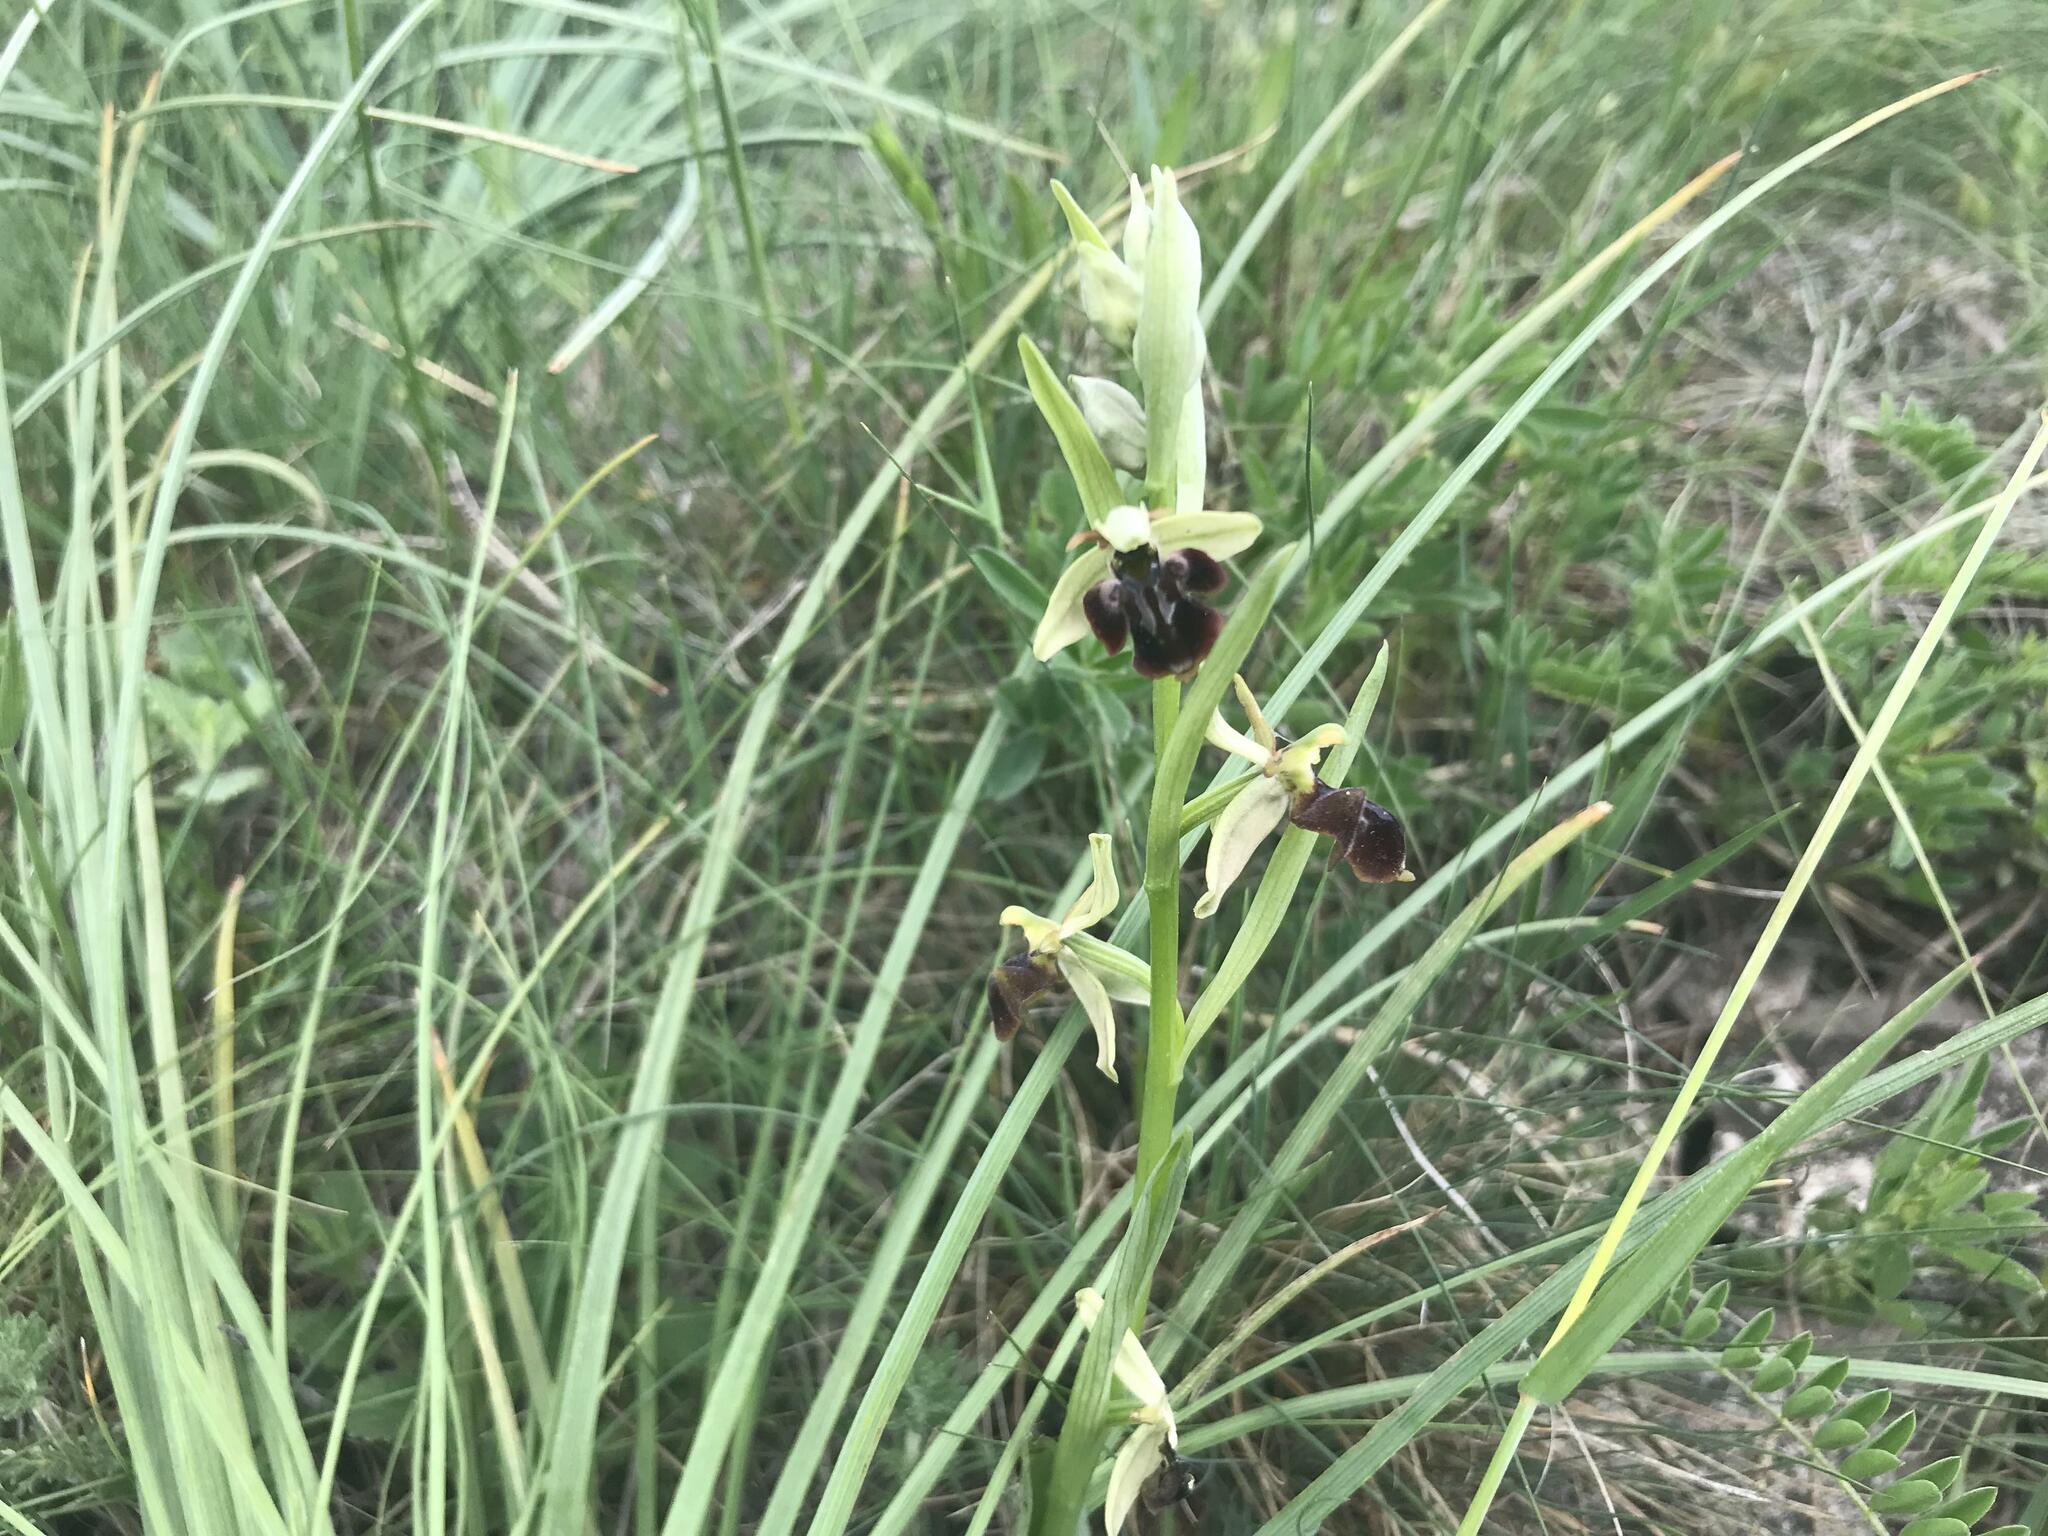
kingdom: Plantae
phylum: Tracheophyta
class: Liliopsida
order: Asparagales
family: Orchidaceae
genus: Ophrys
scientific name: Ophrys sphegodes
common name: Early spider-orchid
